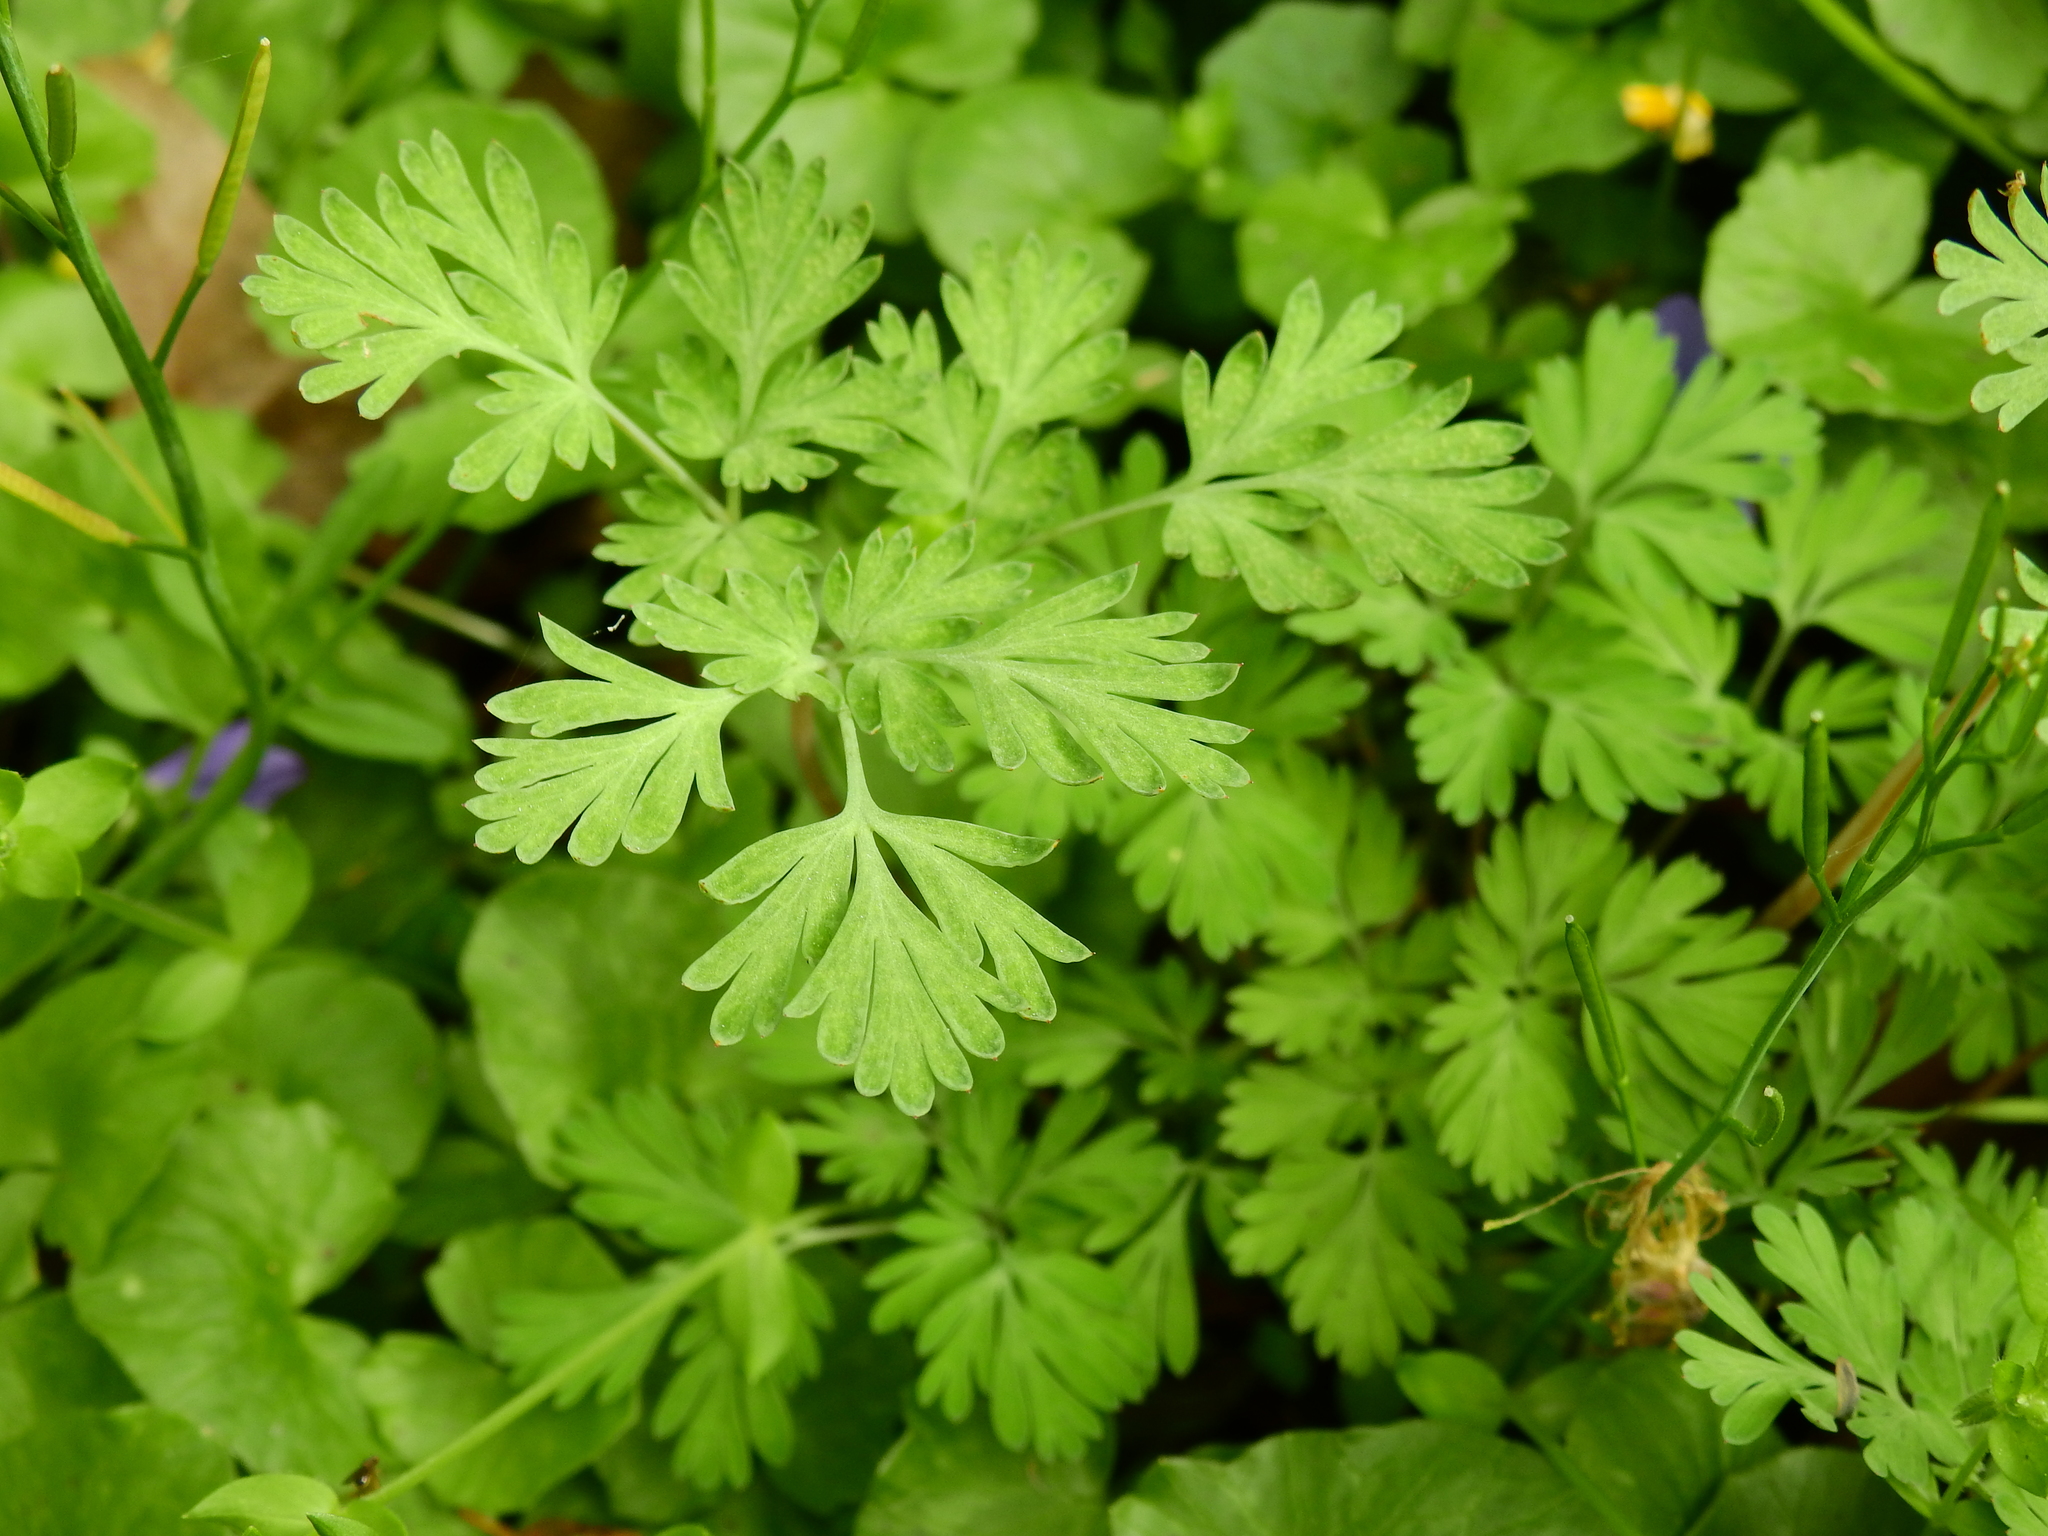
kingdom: Plantae
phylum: Tracheophyta
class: Magnoliopsida
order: Ranunculales
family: Papaveraceae
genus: Corydalis
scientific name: Corydalis flavula
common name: Yellow corydalis
